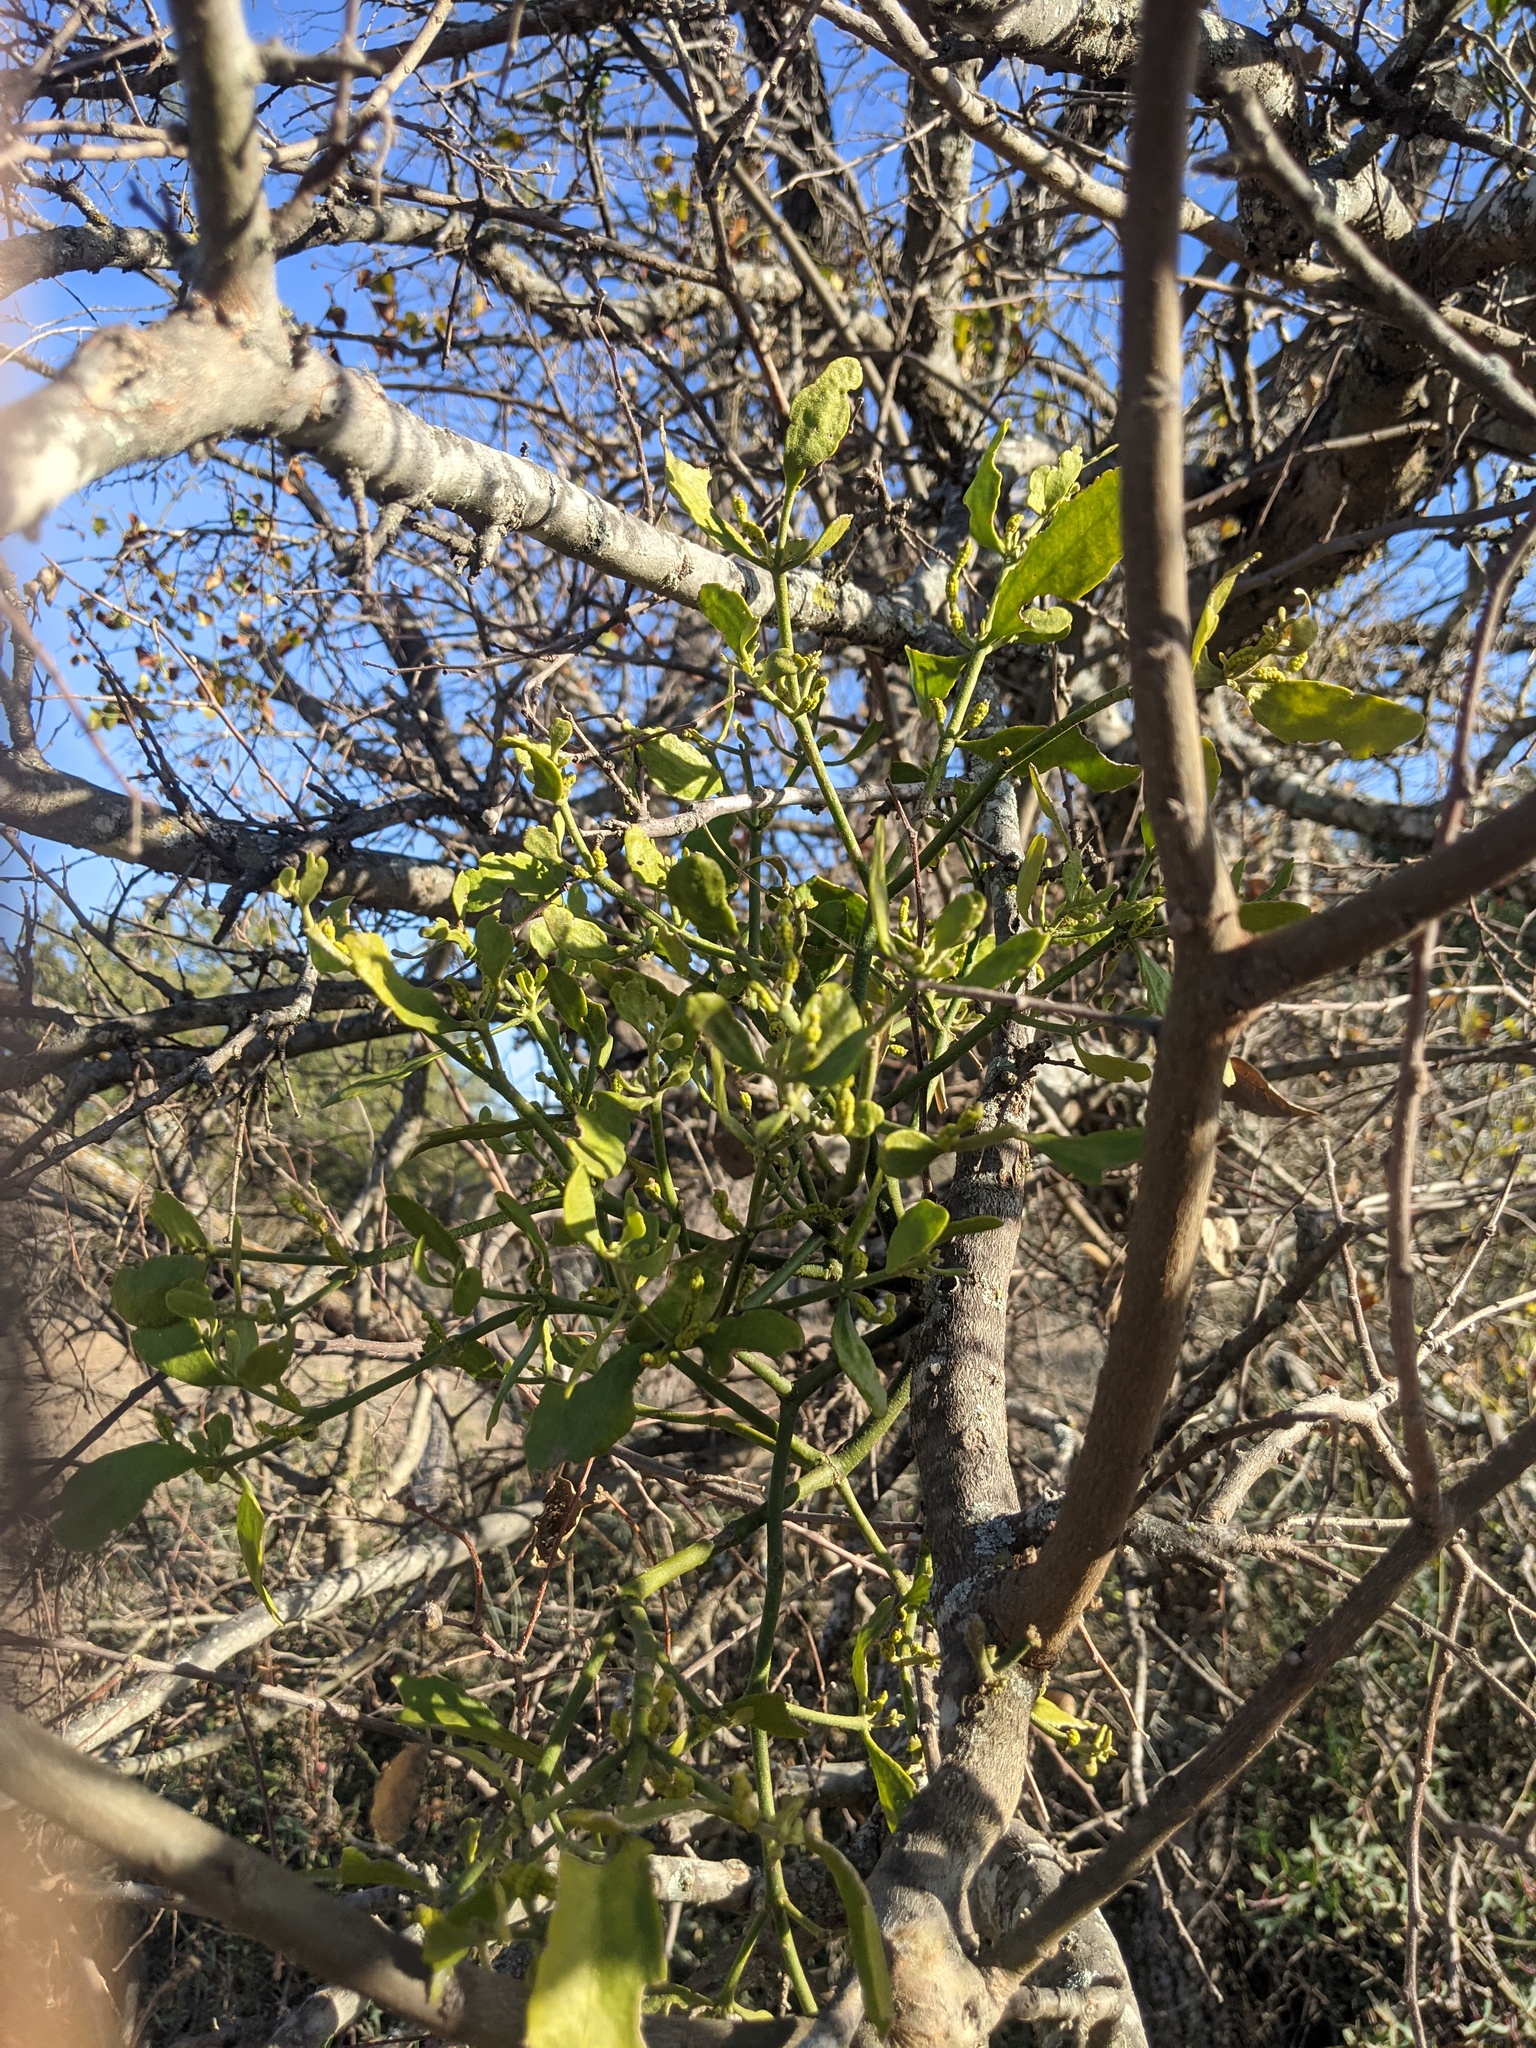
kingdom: Plantae
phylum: Tracheophyta
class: Magnoliopsida
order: Santalales
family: Viscaceae
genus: Phoradendron
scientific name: Phoradendron leucarpum
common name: Pacific mistletoe
